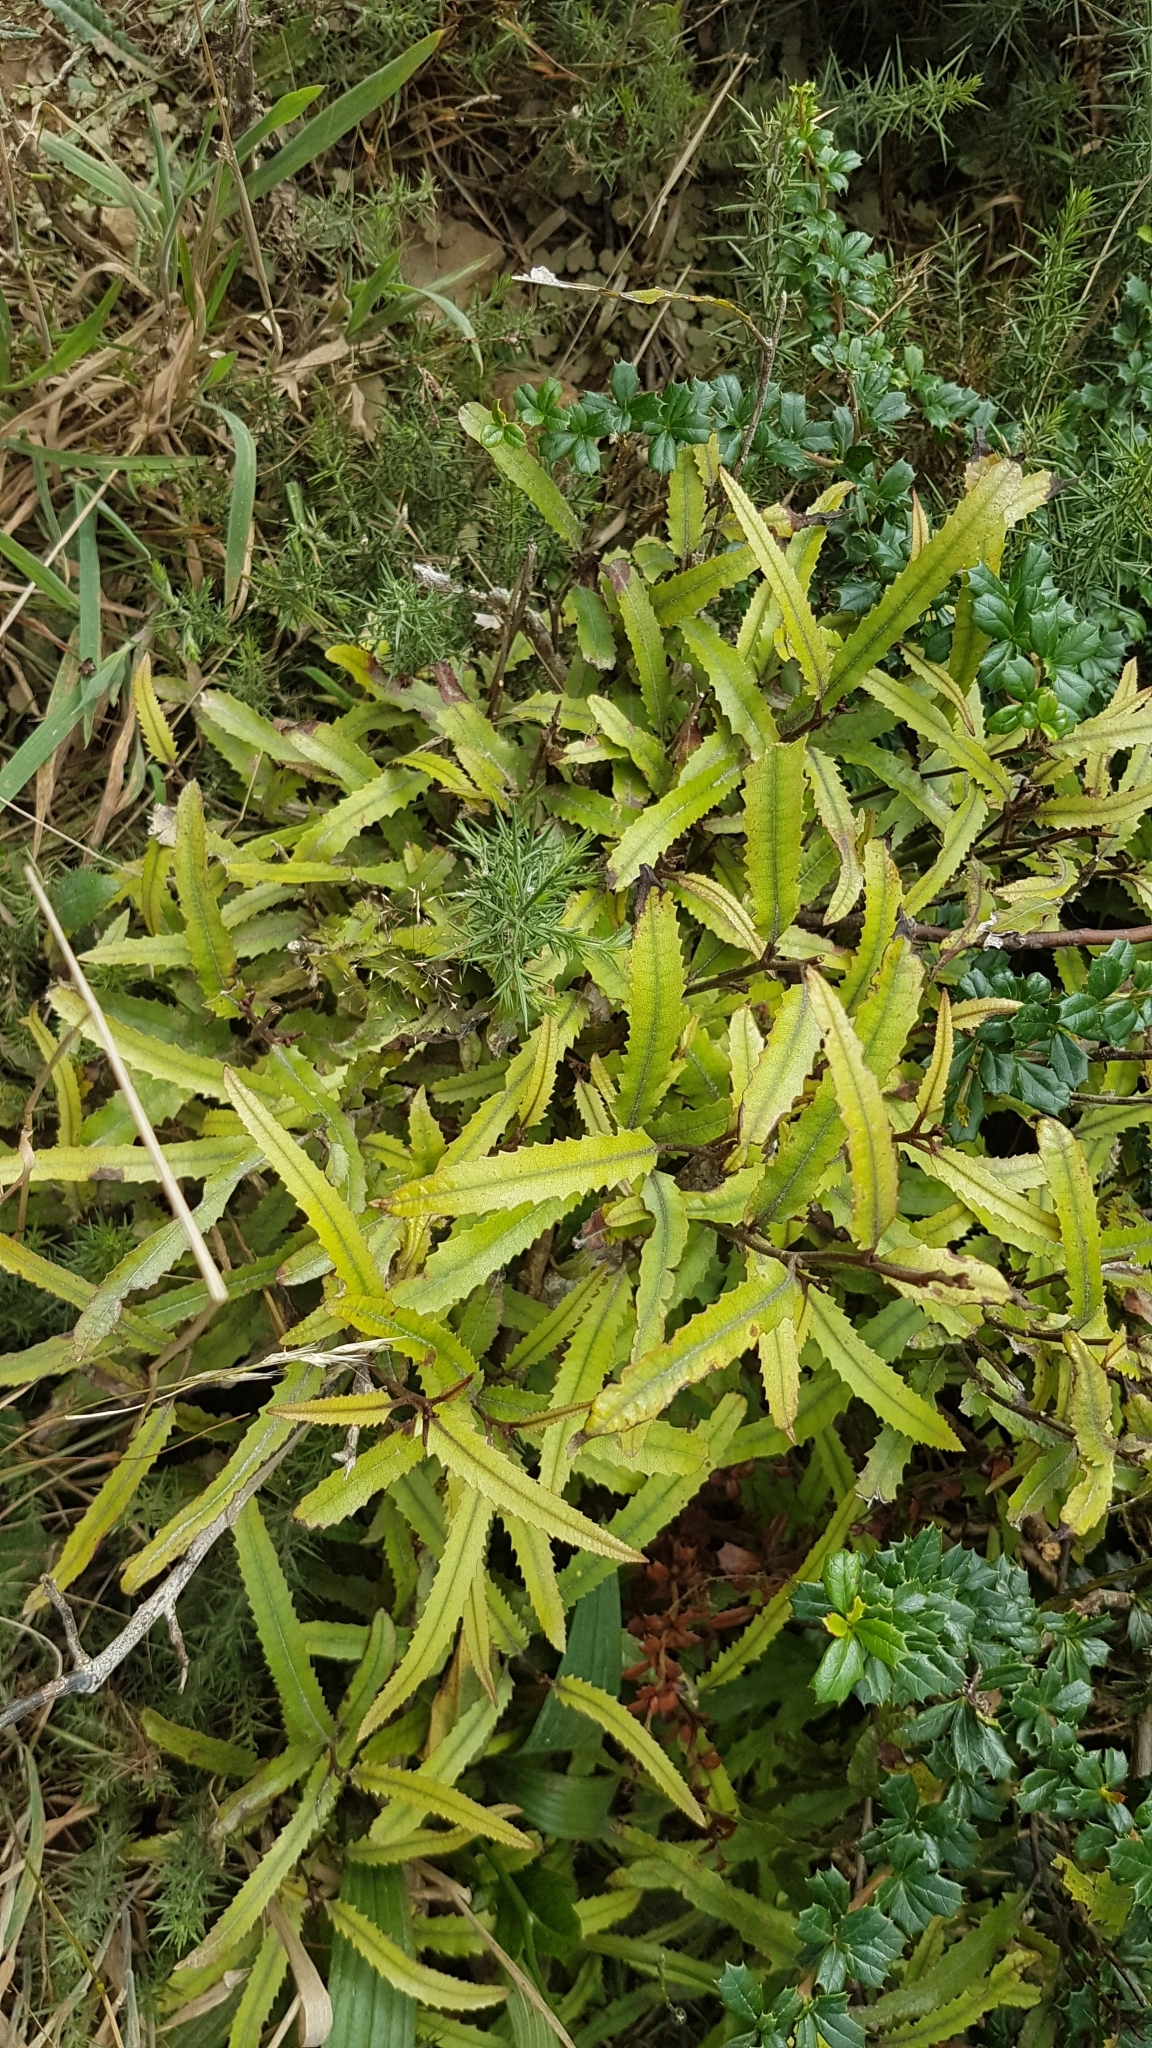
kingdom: Plantae
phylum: Tracheophyta
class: Magnoliopsida
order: Proteales
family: Proteaceae
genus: Knightia
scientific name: Knightia excelsa
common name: New zealand-honeysuckle
